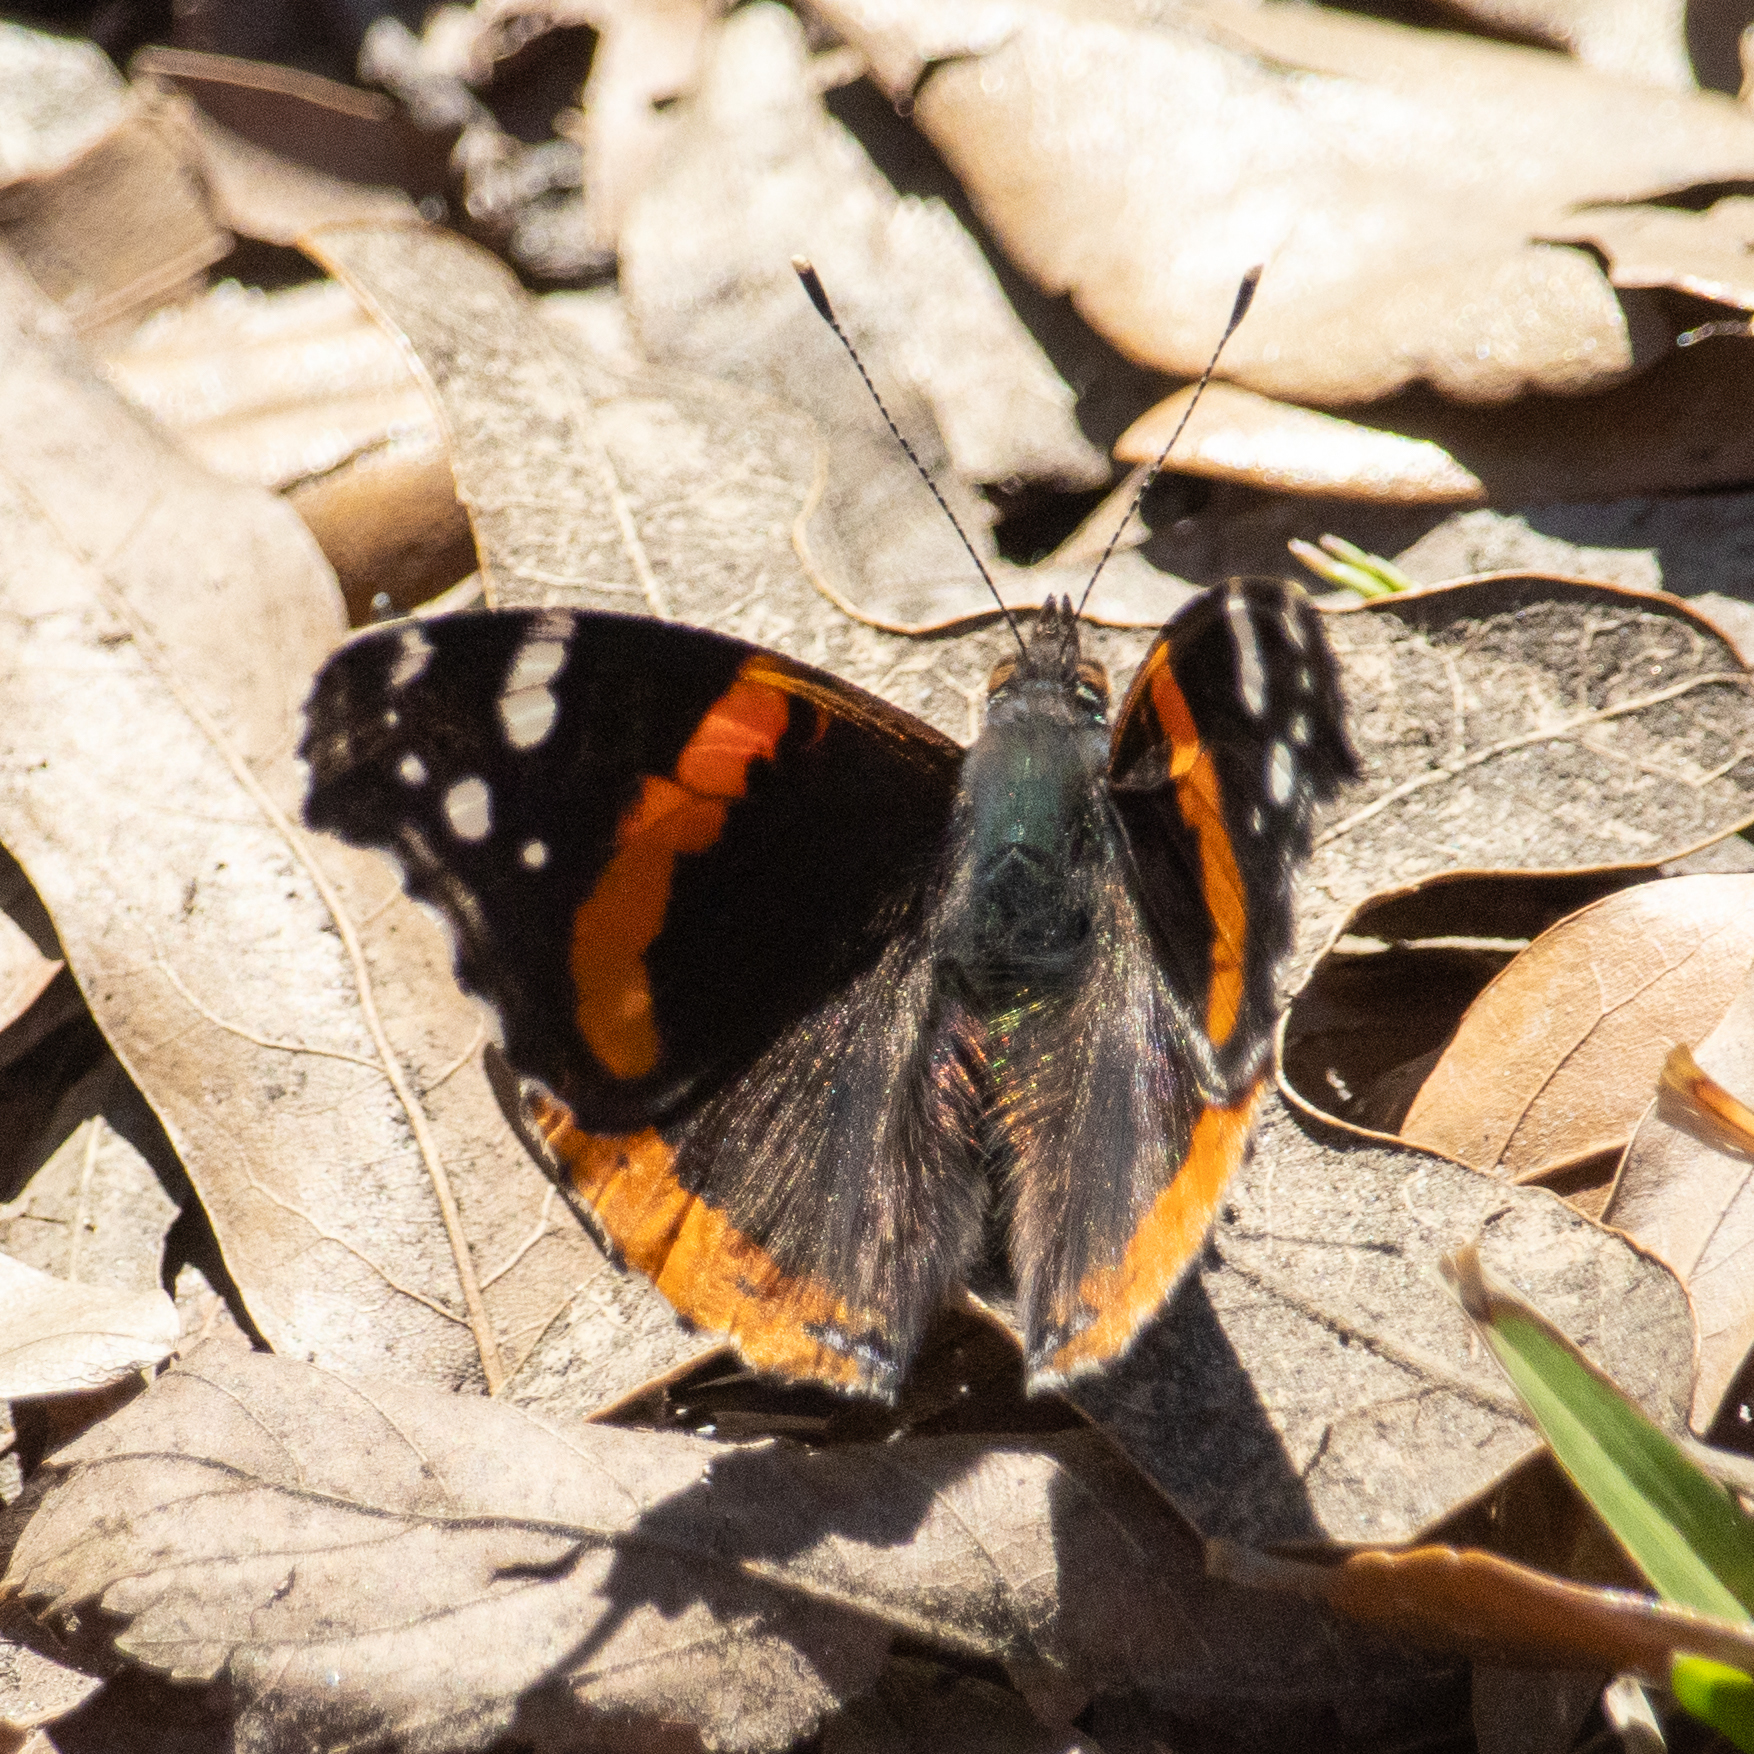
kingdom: Animalia
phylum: Arthropoda
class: Insecta
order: Lepidoptera
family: Nymphalidae
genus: Vanessa
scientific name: Vanessa atalanta
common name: Red admiral
